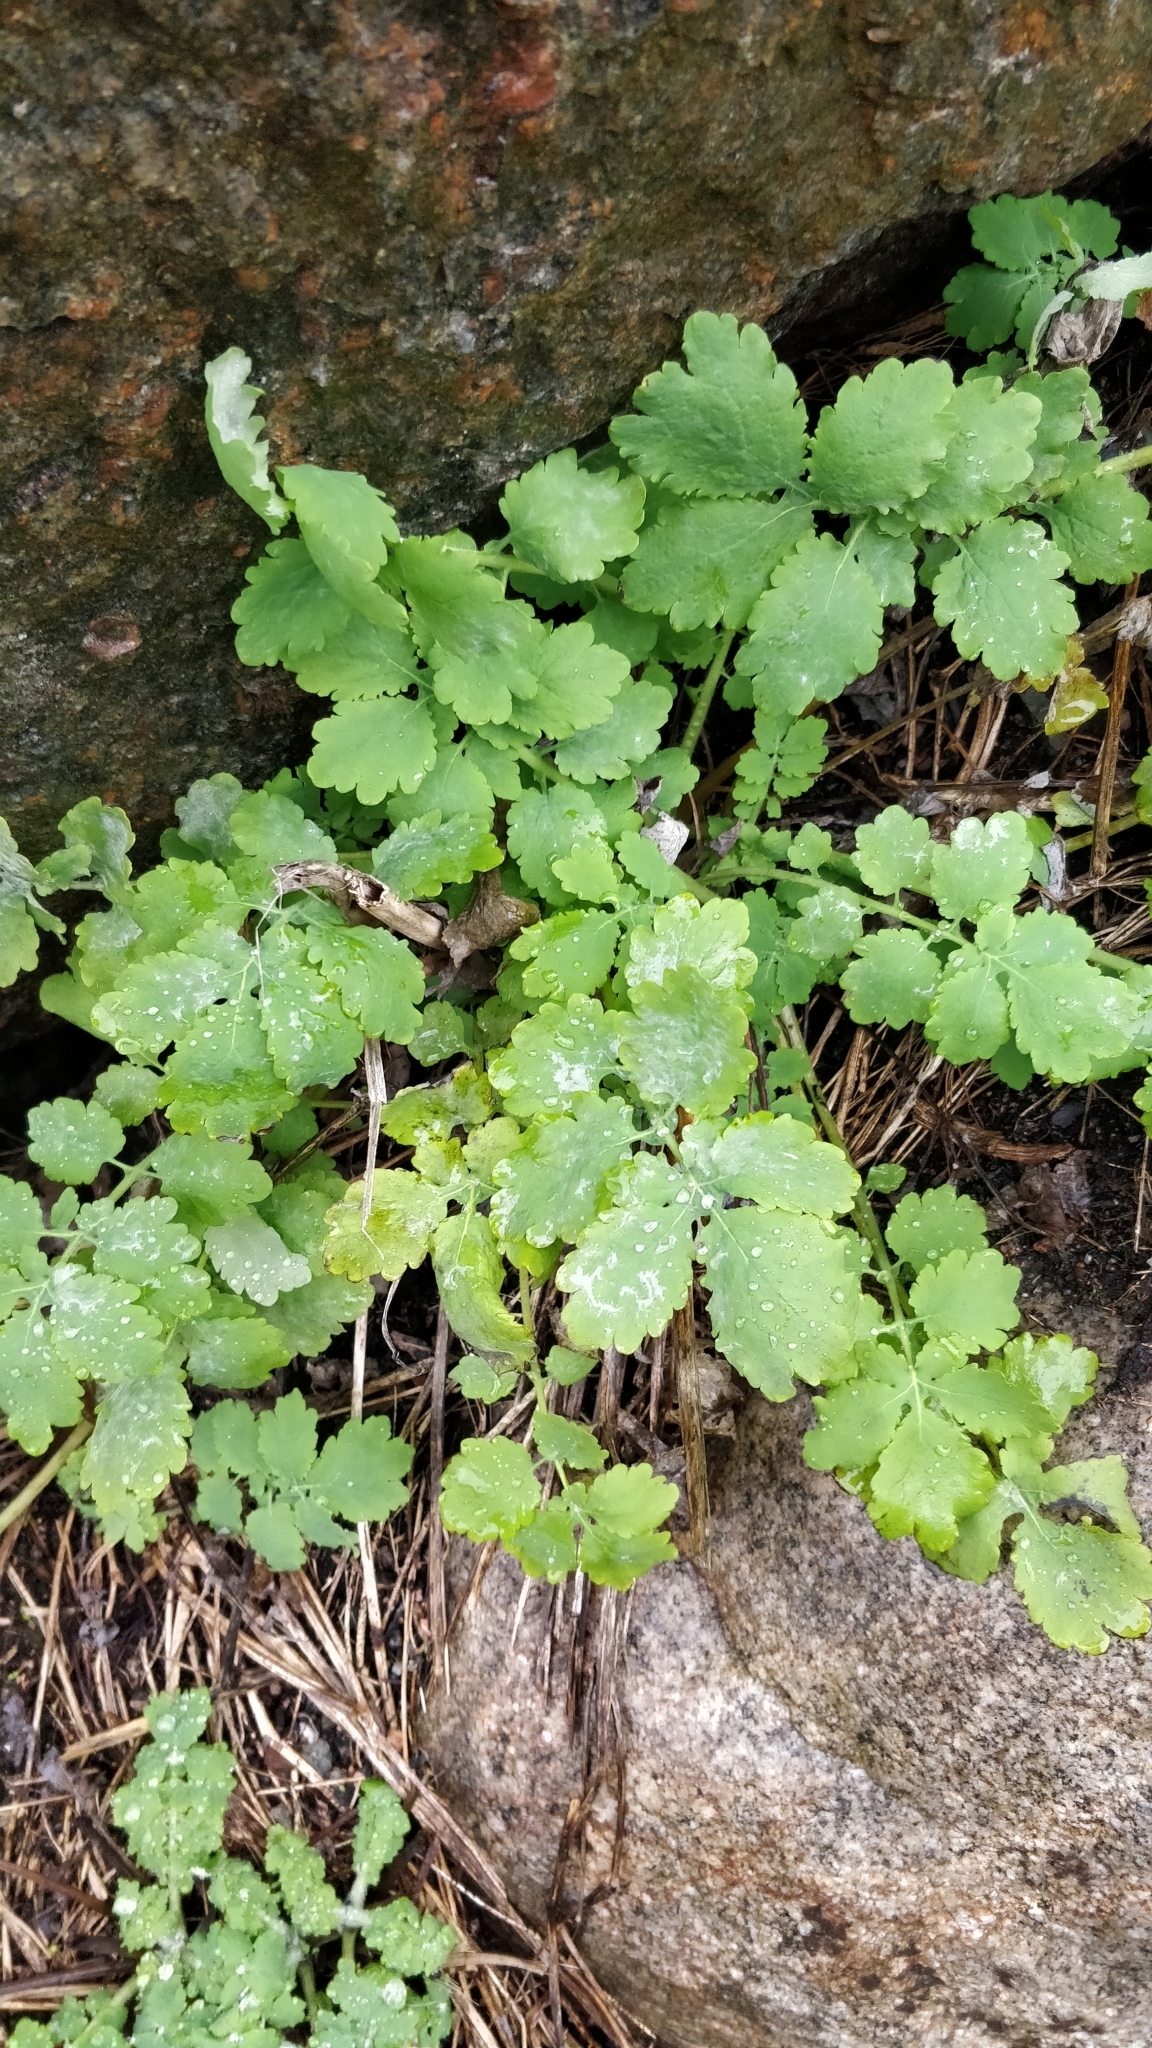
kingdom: Plantae
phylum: Tracheophyta
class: Magnoliopsida
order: Ranunculales
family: Papaveraceae
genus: Chelidonium
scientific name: Chelidonium majus
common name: Greater celandine
